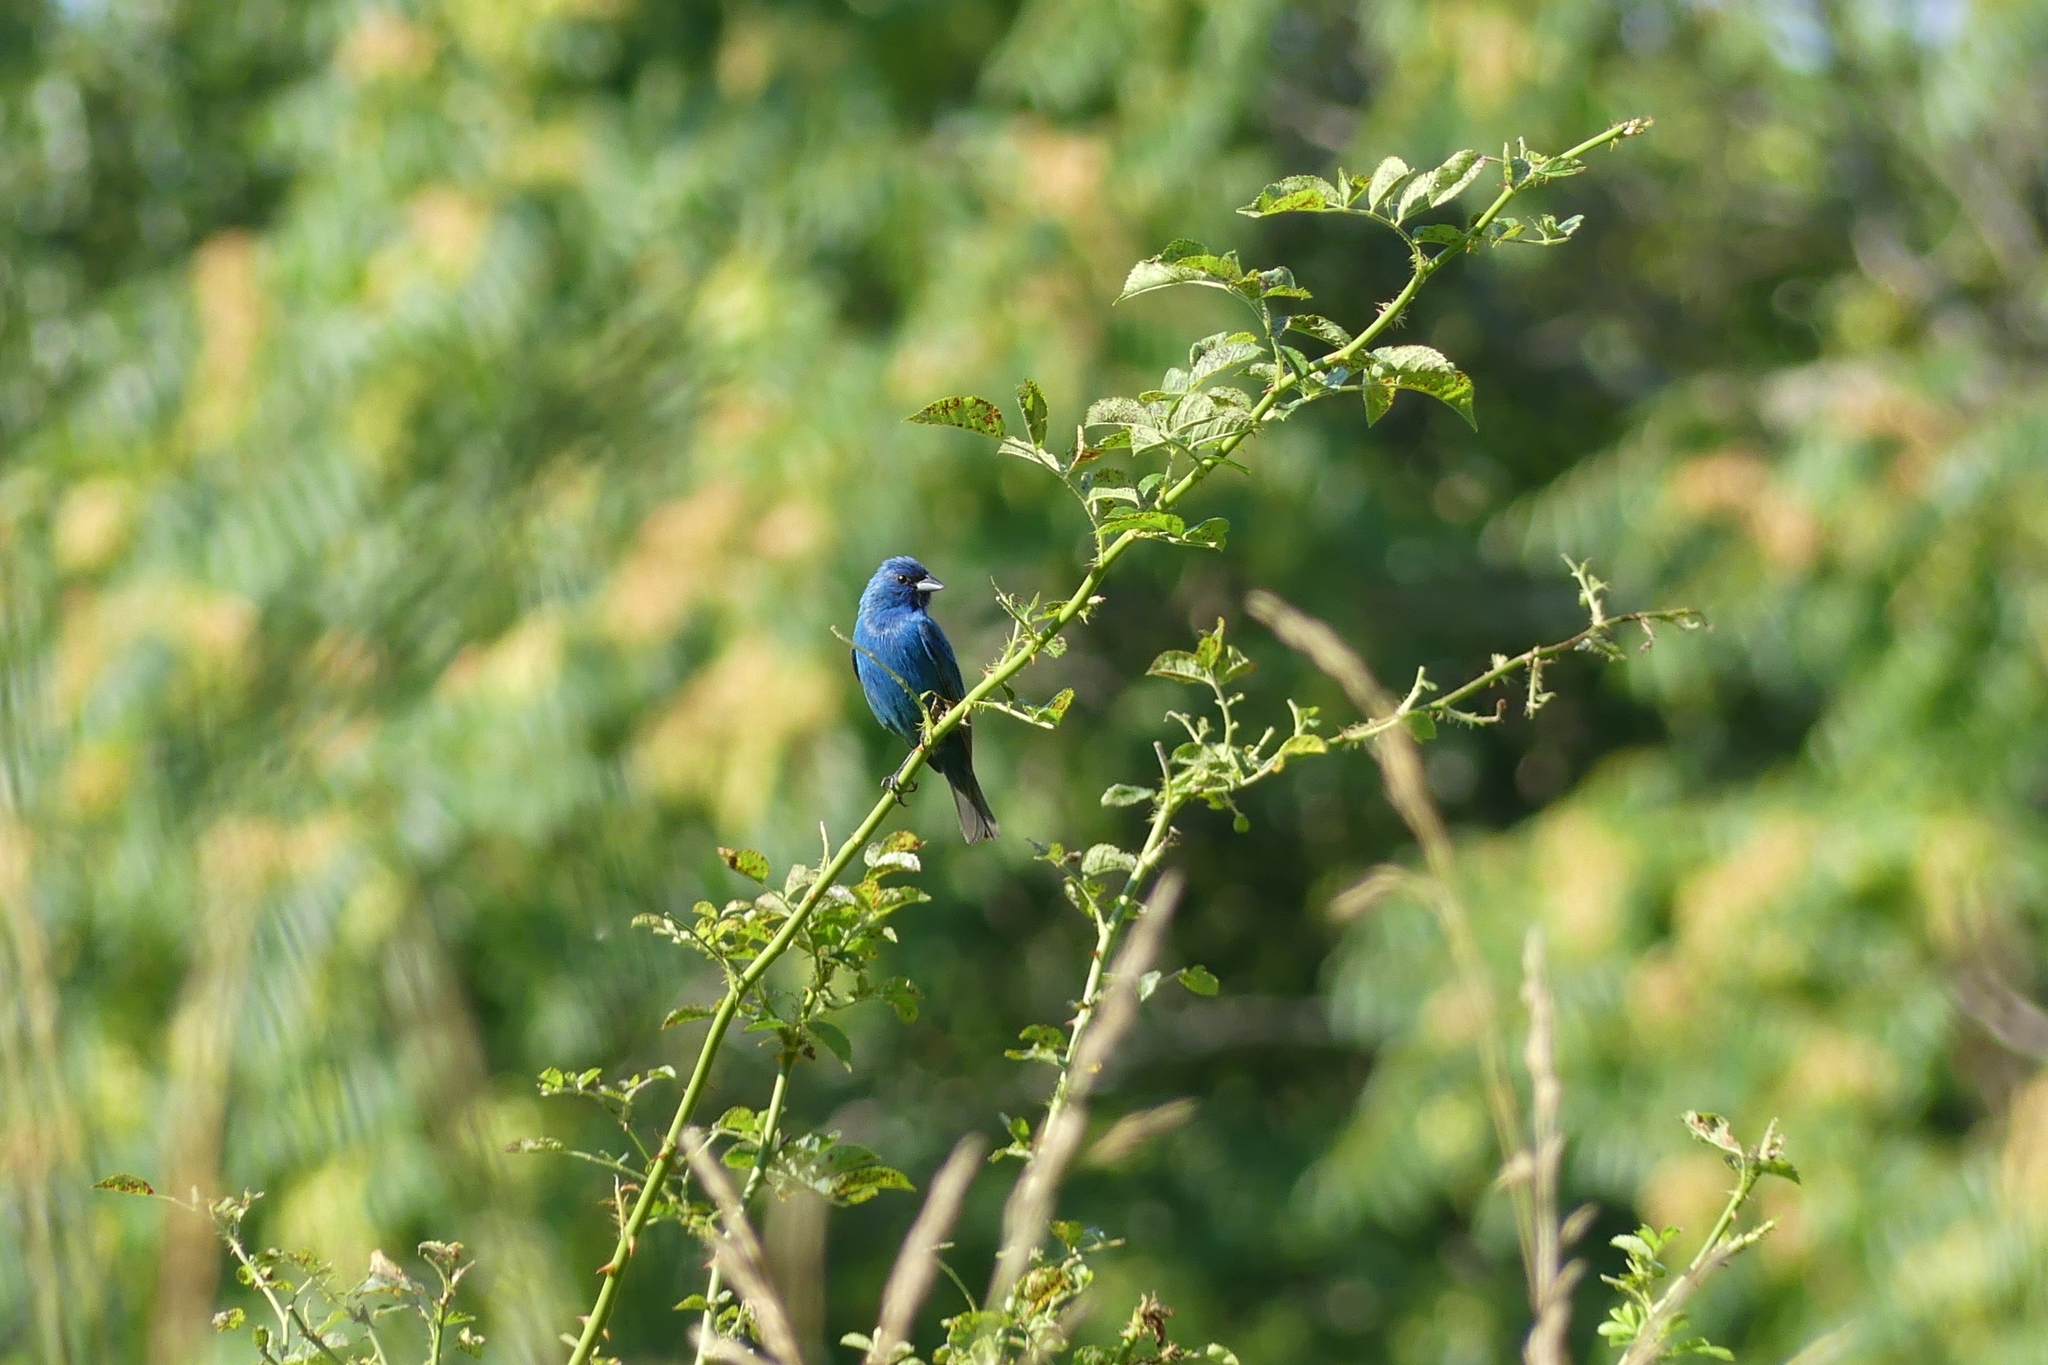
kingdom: Animalia
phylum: Chordata
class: Aves
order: Passeriformes
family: Cardinalidae
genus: Passerina
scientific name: Passerina cyanea
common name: Indigo bunting
